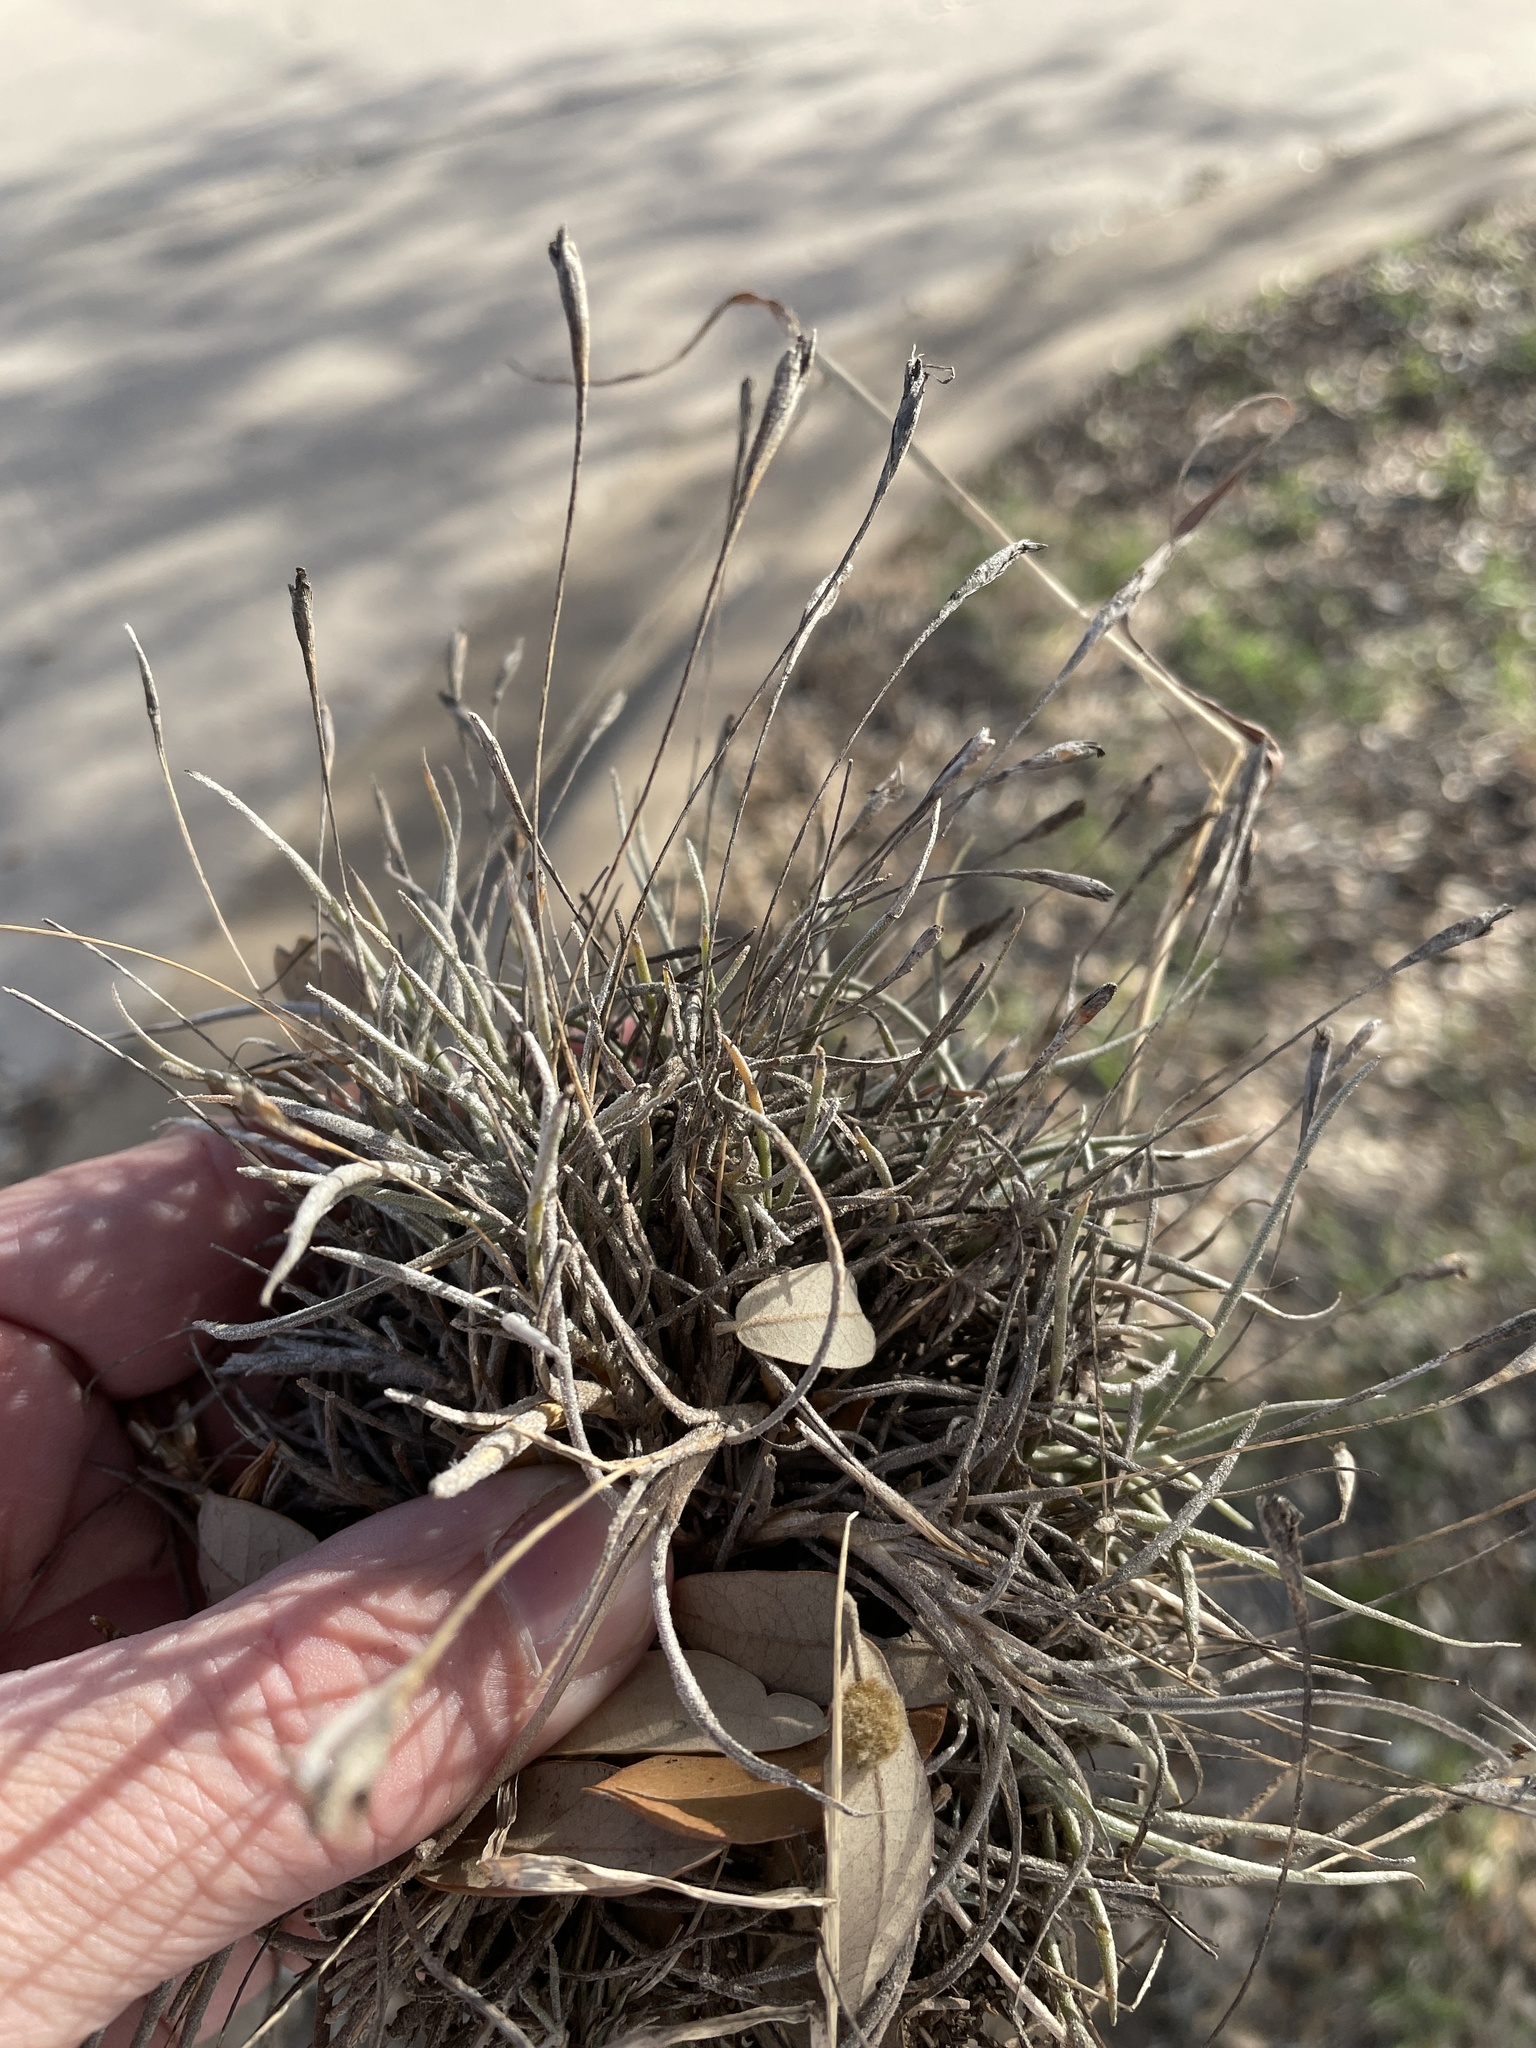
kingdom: Plantae
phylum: Tracheophyta
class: Liliopsida
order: Poales
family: Bromeliaceae
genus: Tillandsia
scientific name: Tillandsia recurvata
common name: Small ballmoss
